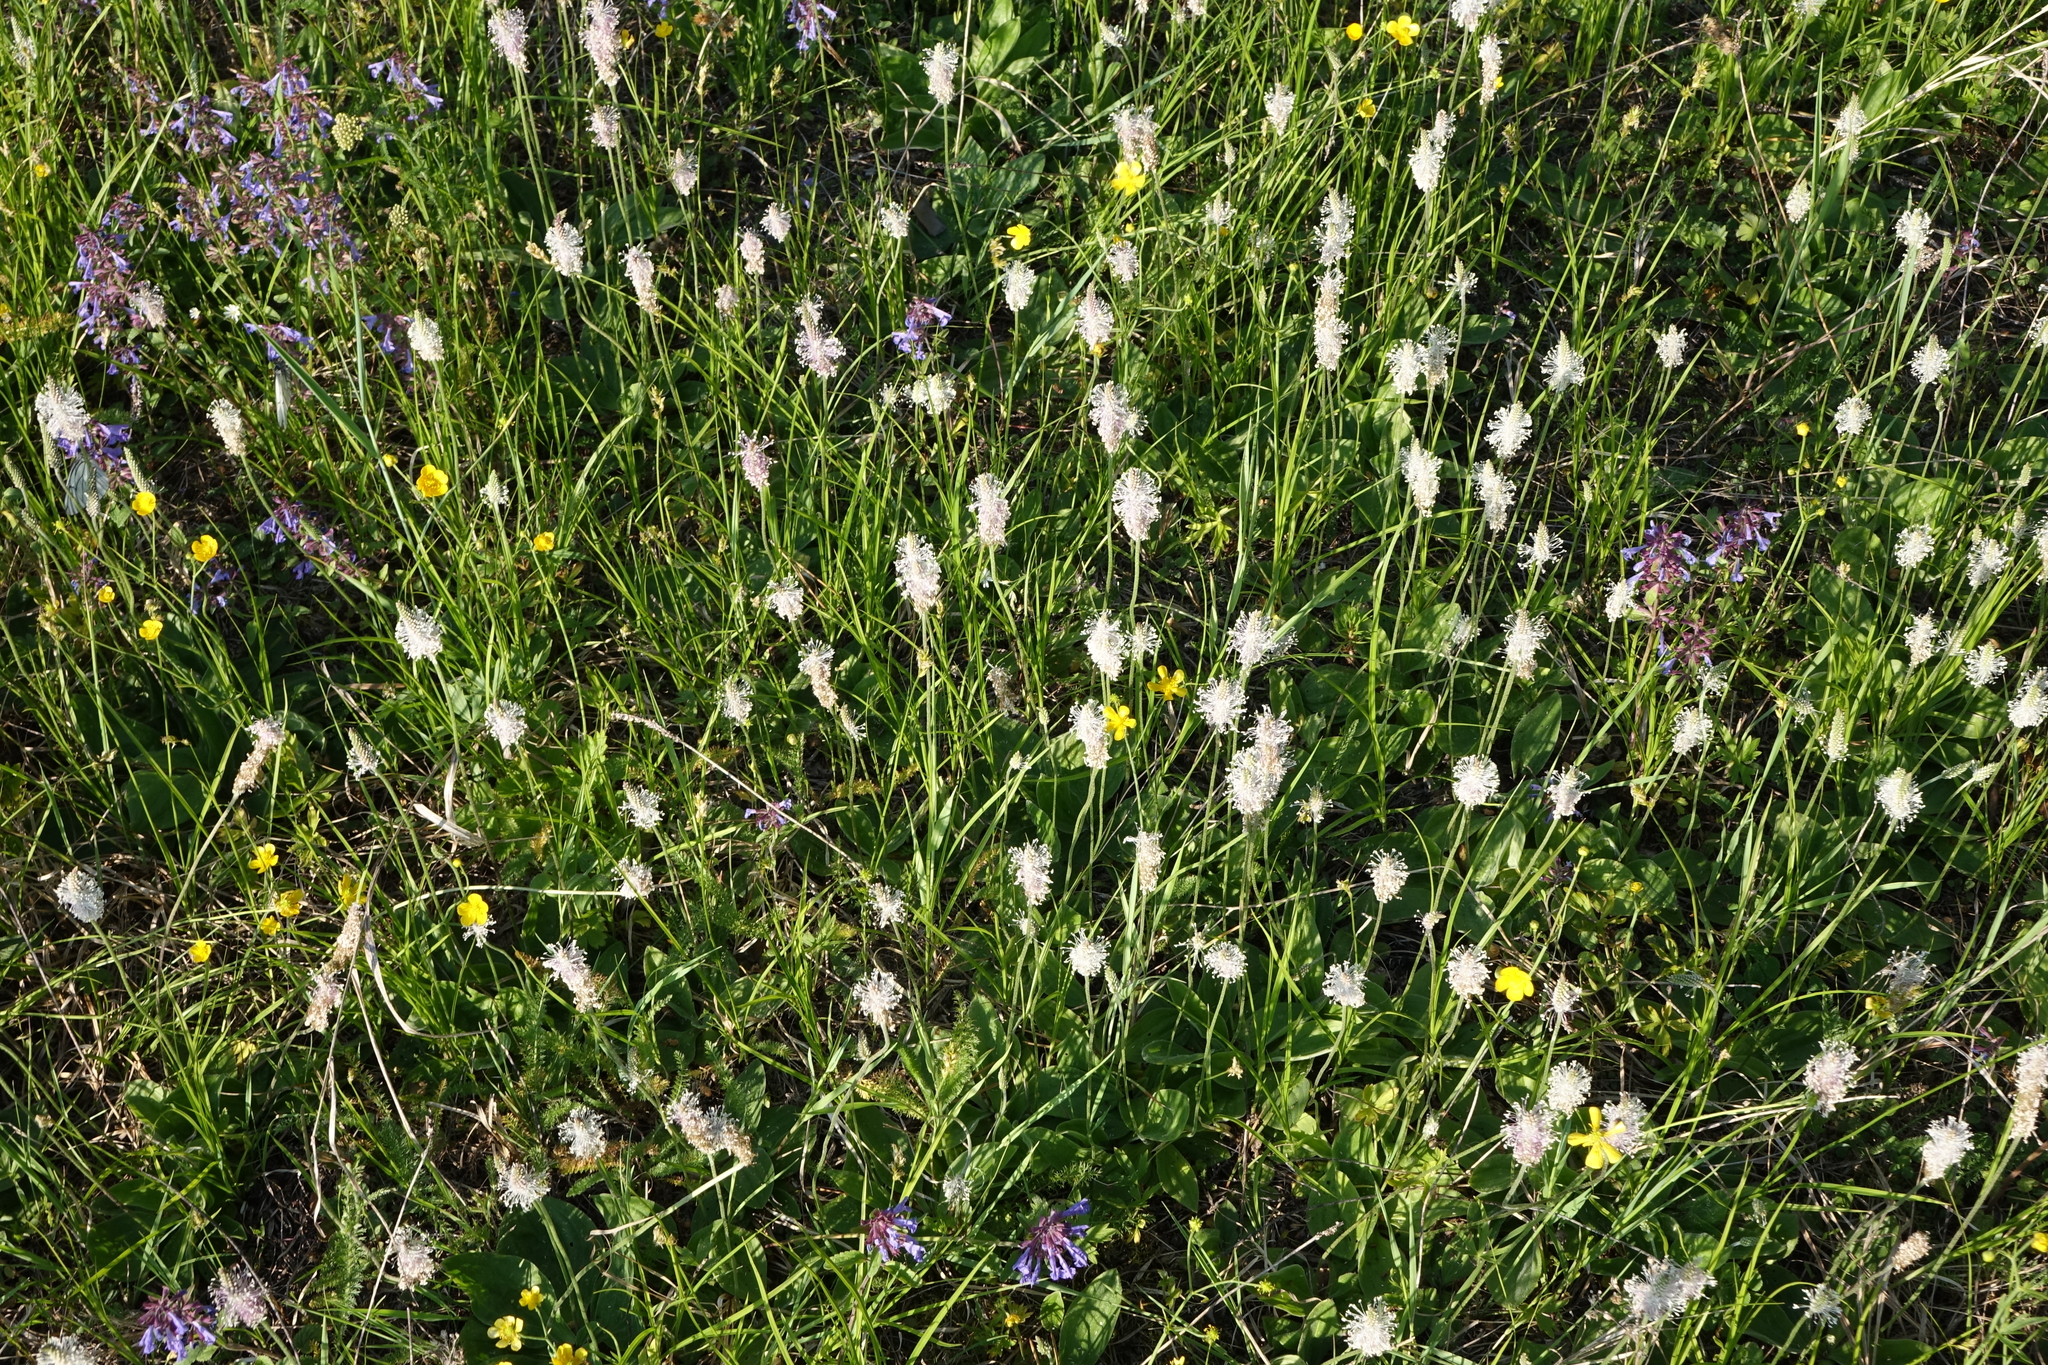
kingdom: Plantae
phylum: Tracheophyta
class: Magnoliopsida
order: Lamiales
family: Plantaginaceae
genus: Plantago
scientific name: Plantago media
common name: Hoary plantain
